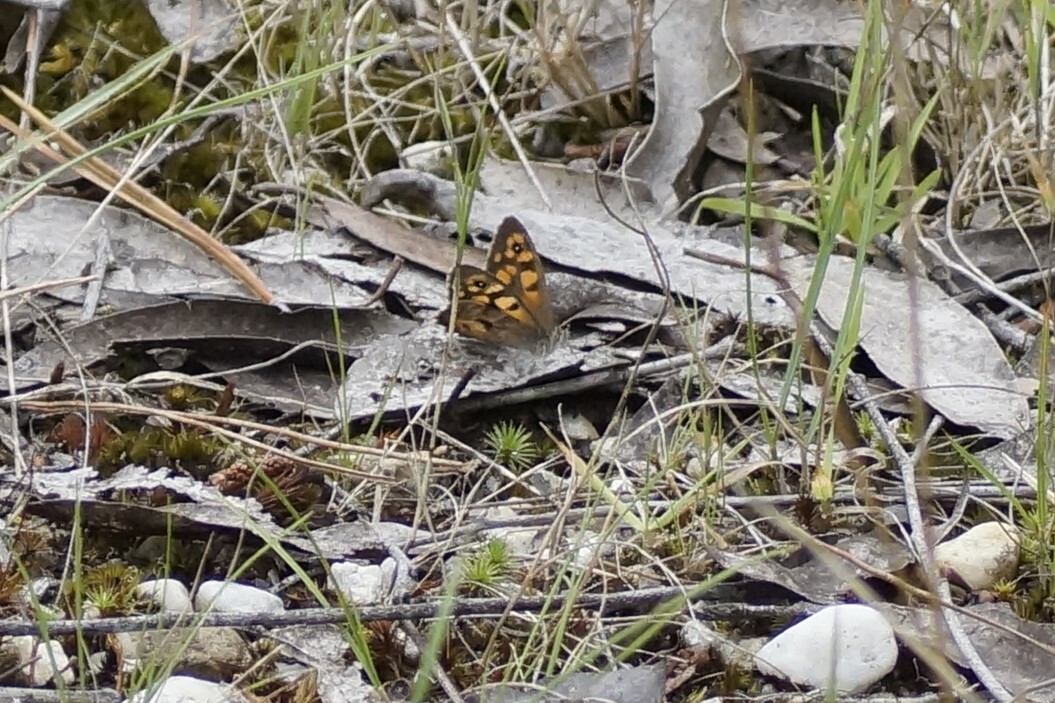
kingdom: Animalia
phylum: Arthropoda
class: Insecta
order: Lepidoptera
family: Nymphalidae
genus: Geitoneura
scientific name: Geitoneura klugii
